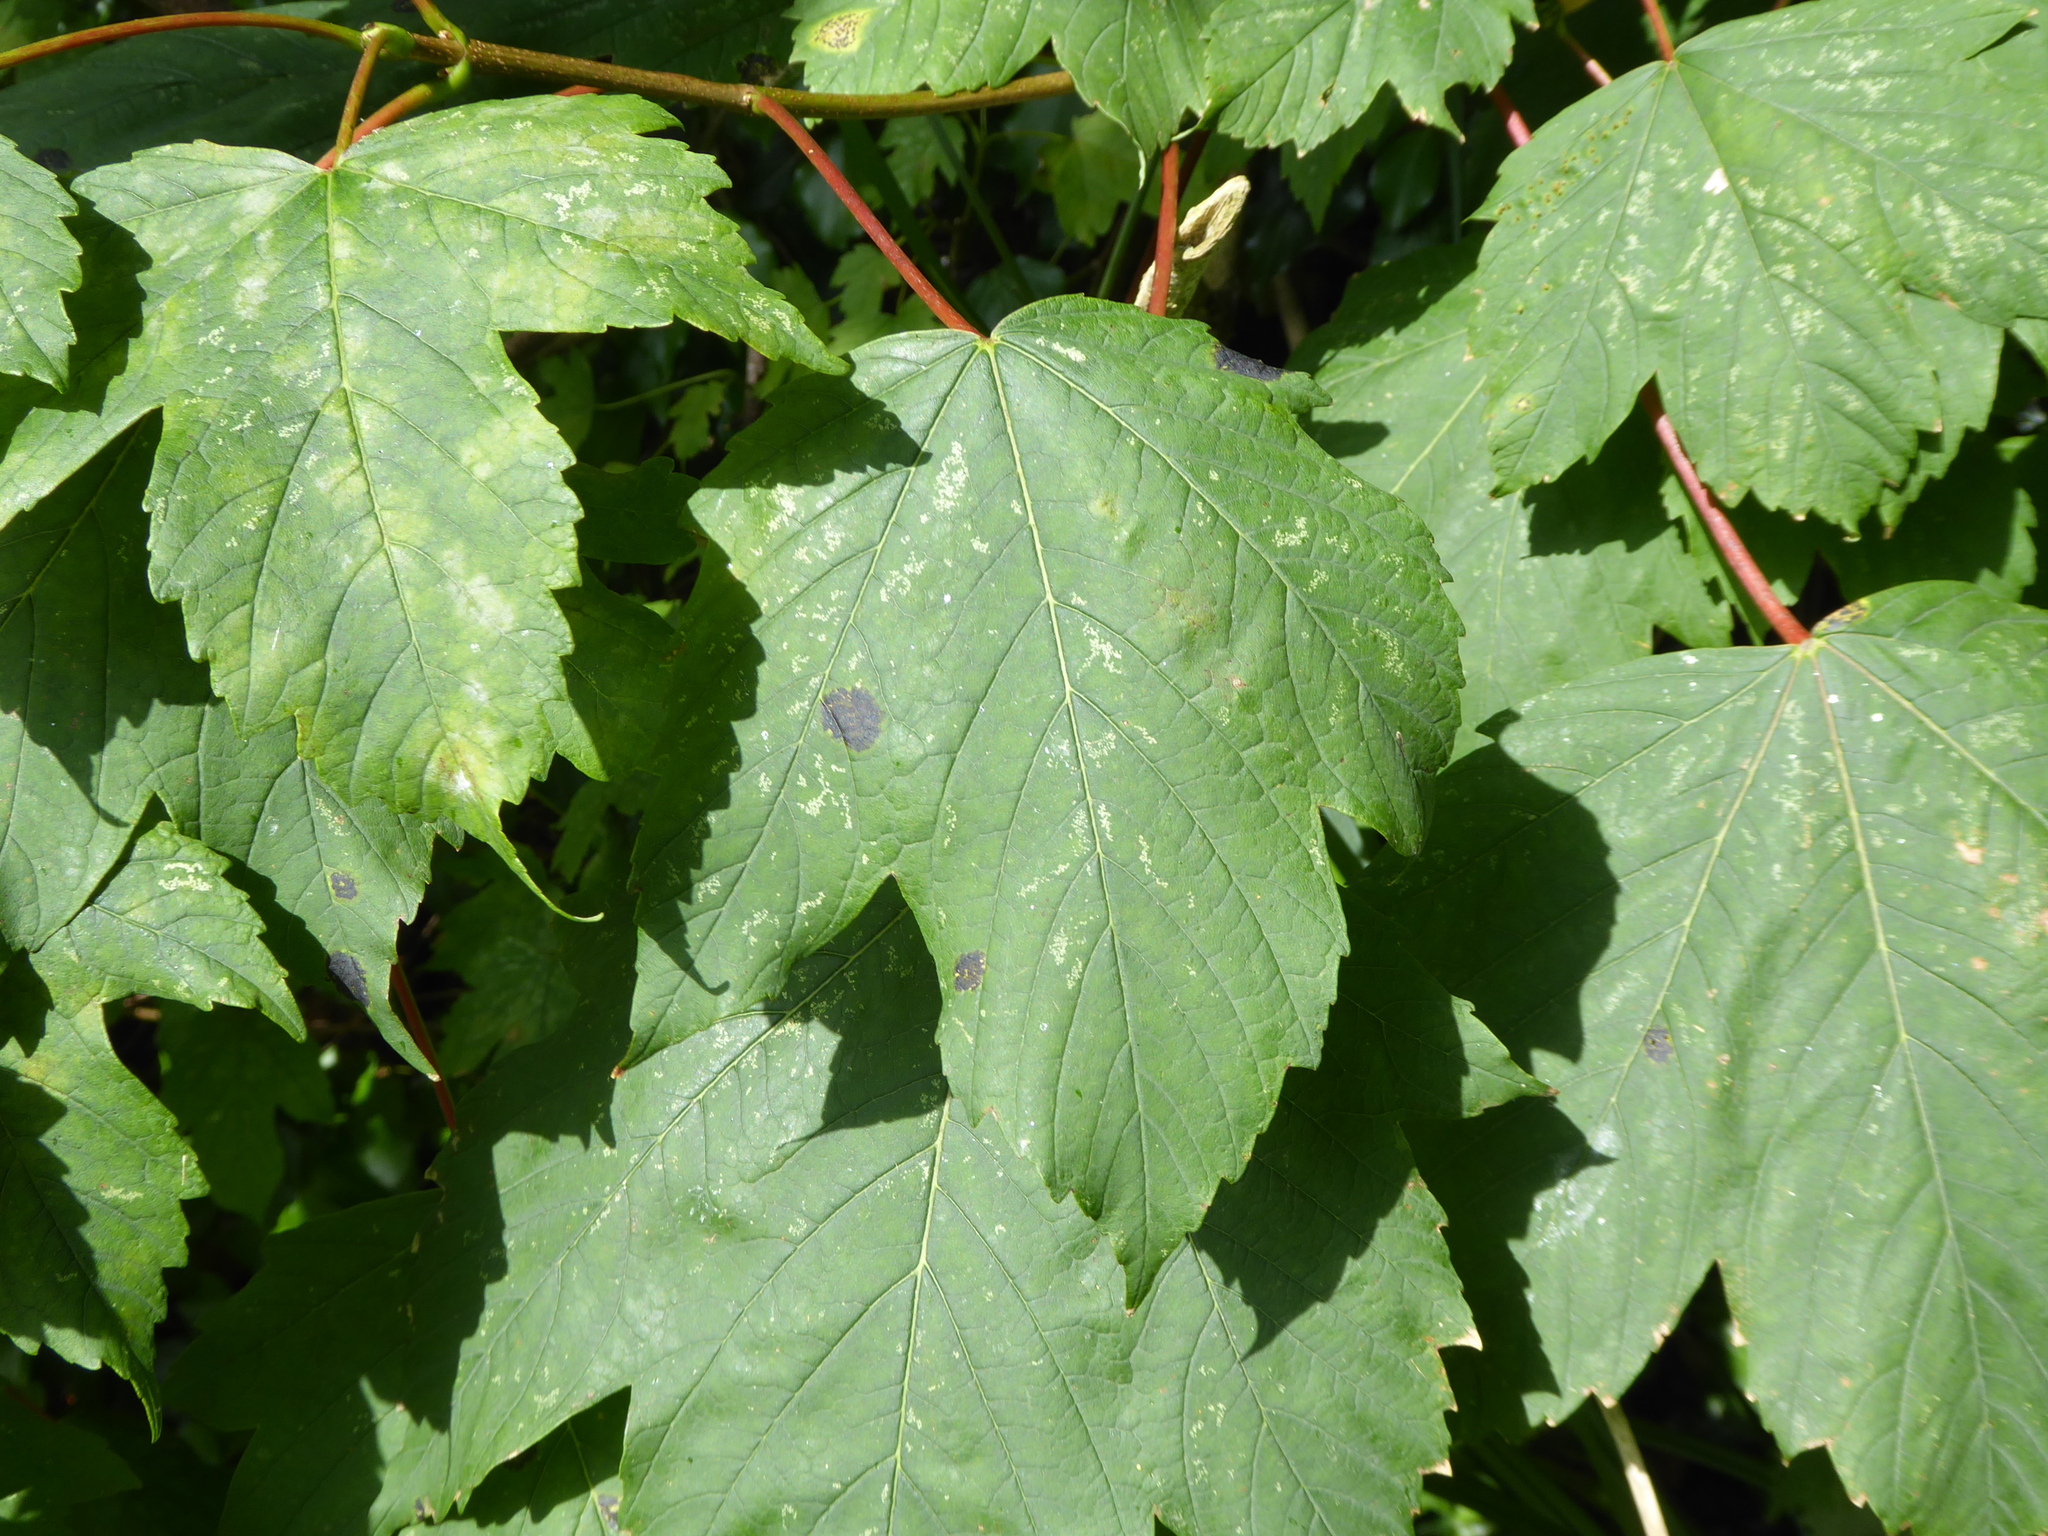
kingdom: Fungi
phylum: Ascomycota
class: Leotiomycetes
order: Rhytismatales
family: Rhytismataceae
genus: Rhytisma
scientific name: Rhytisma acerinum
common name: European tar spot
